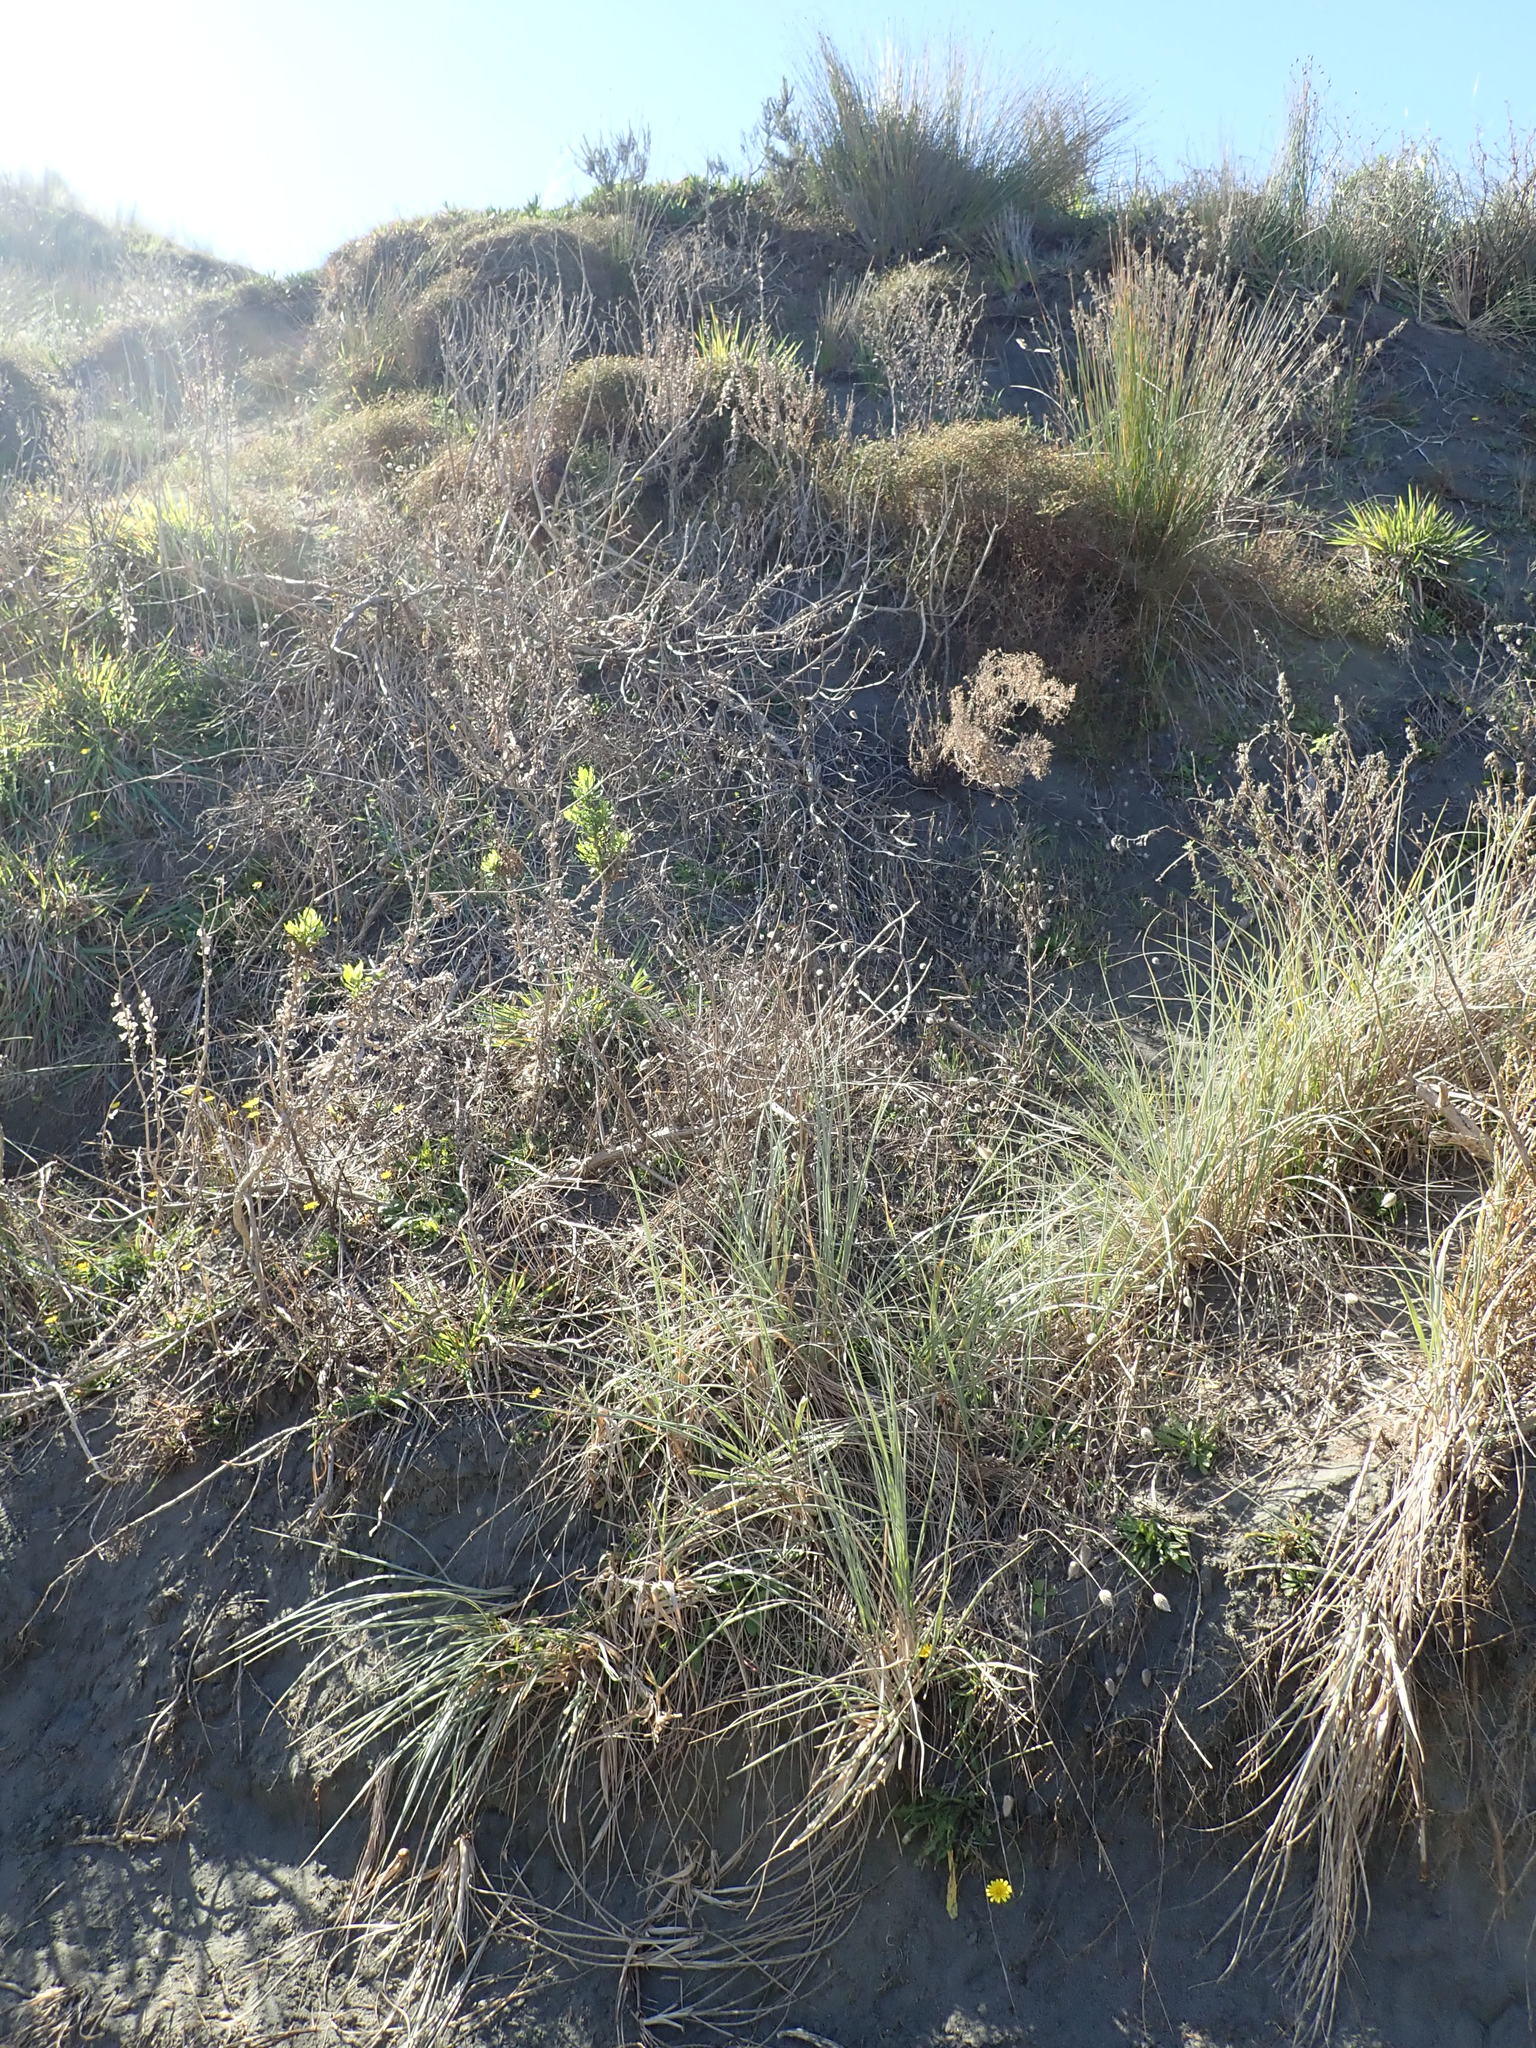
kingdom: Plantae
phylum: Tracheophyta
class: Magnoliopsida
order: Gentianales
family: Rubiaceae
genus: Coprosma
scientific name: Coprosma acerosa
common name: Sand coprosma
